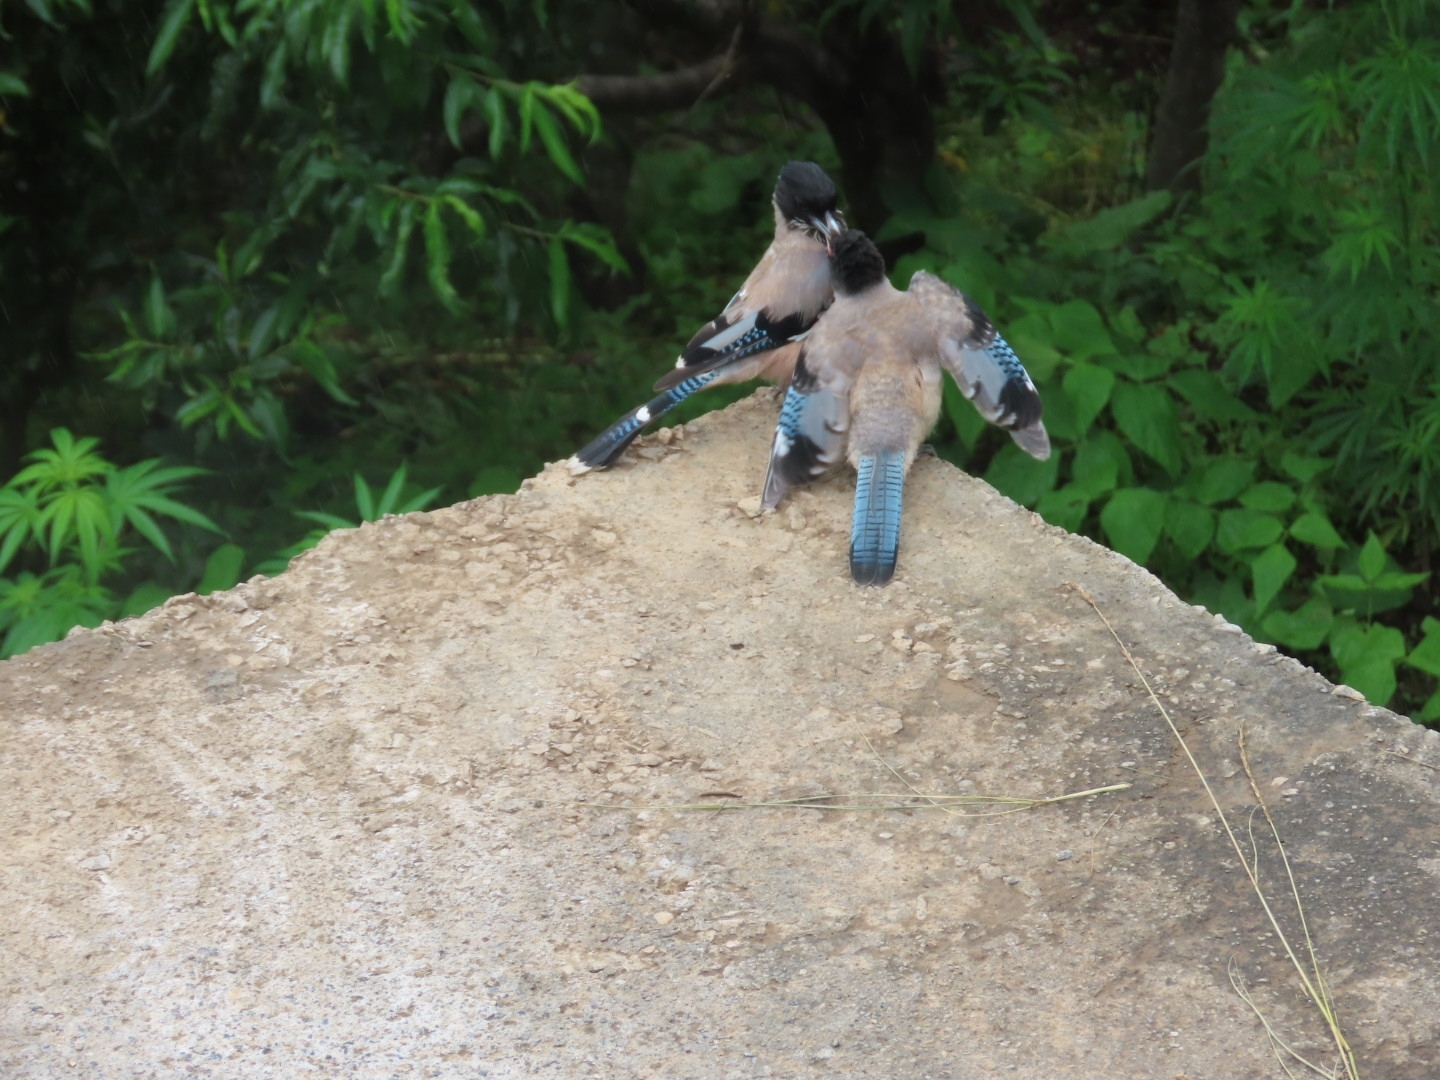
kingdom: Animalia
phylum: Chordata
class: Aves
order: Passeriformes
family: Corvidae
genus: Garrulus
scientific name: Garrulus lanceolatus
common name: Black-headed jay
